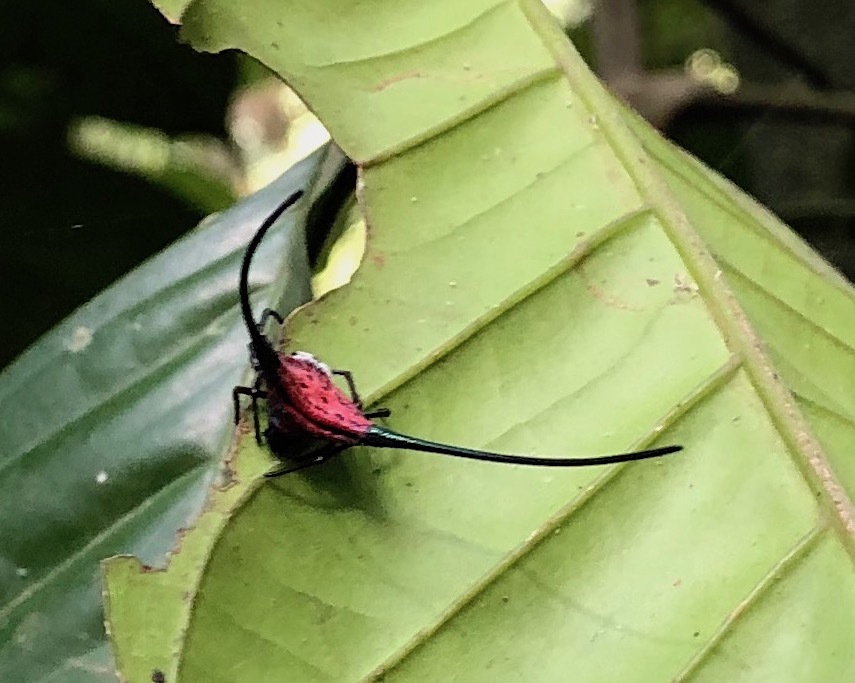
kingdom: Animalia
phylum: Arthropoda
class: Arachnida
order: Araneae
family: Araneidae
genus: Macracantha
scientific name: Macracantha arcuata
